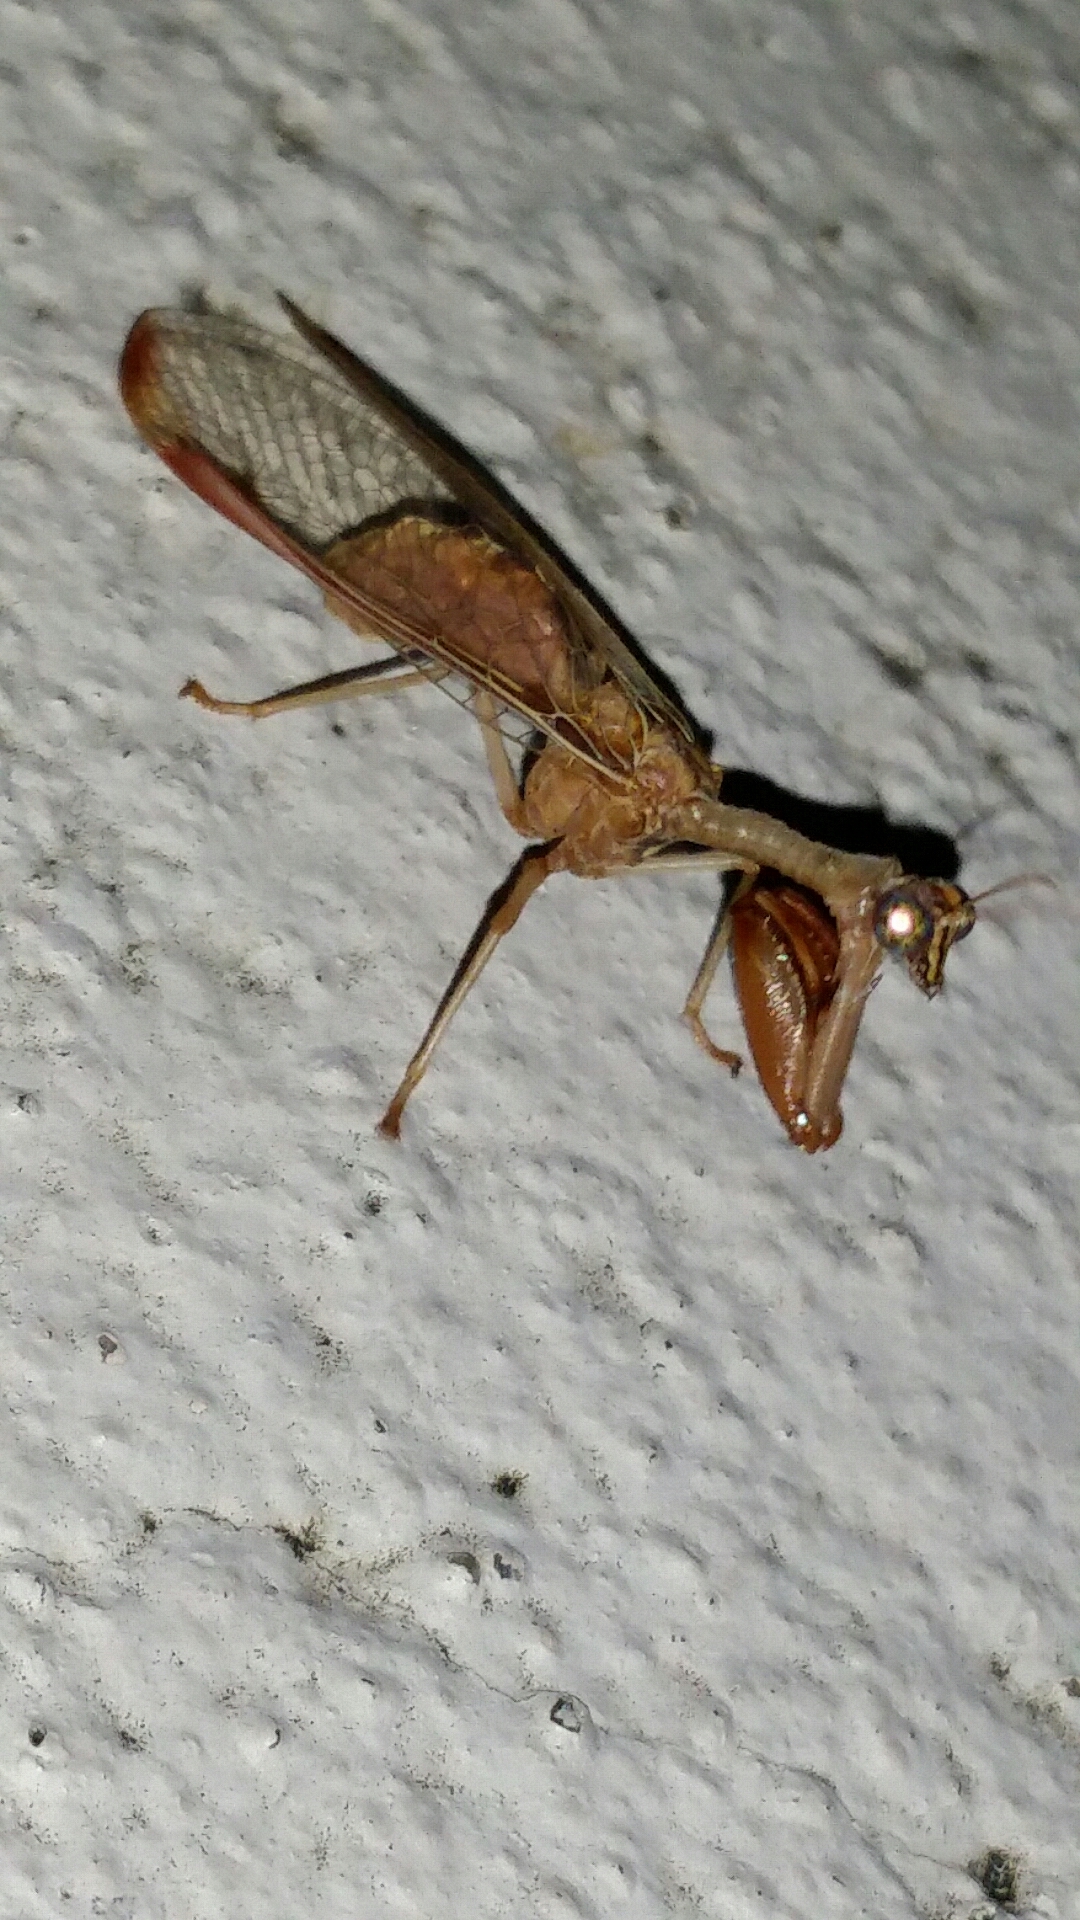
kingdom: Animalia
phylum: Arthropoda
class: Insecta
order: Neuroptera
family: Mantispidae
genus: Dicromantispa
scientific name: Dicromantispa interrupta
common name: Four-spotted mantidfly
